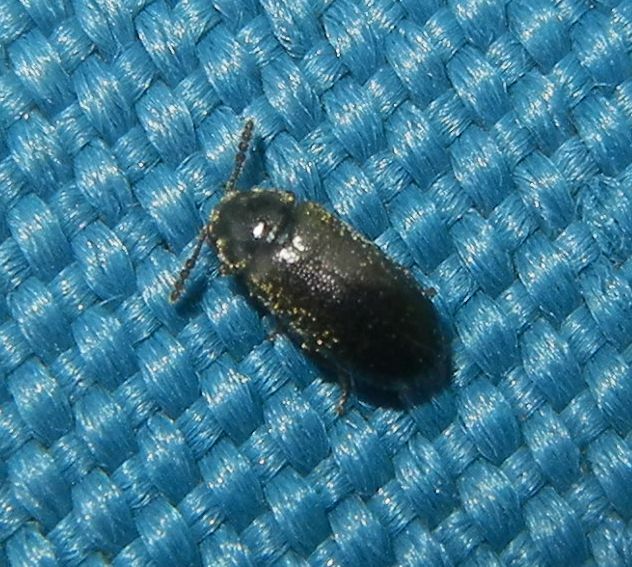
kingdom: Animalia
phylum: Arthropoda
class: Insecta
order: Coleoptera
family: Tetratomidae
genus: Tetratoma
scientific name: Tetratoma desmarestii
